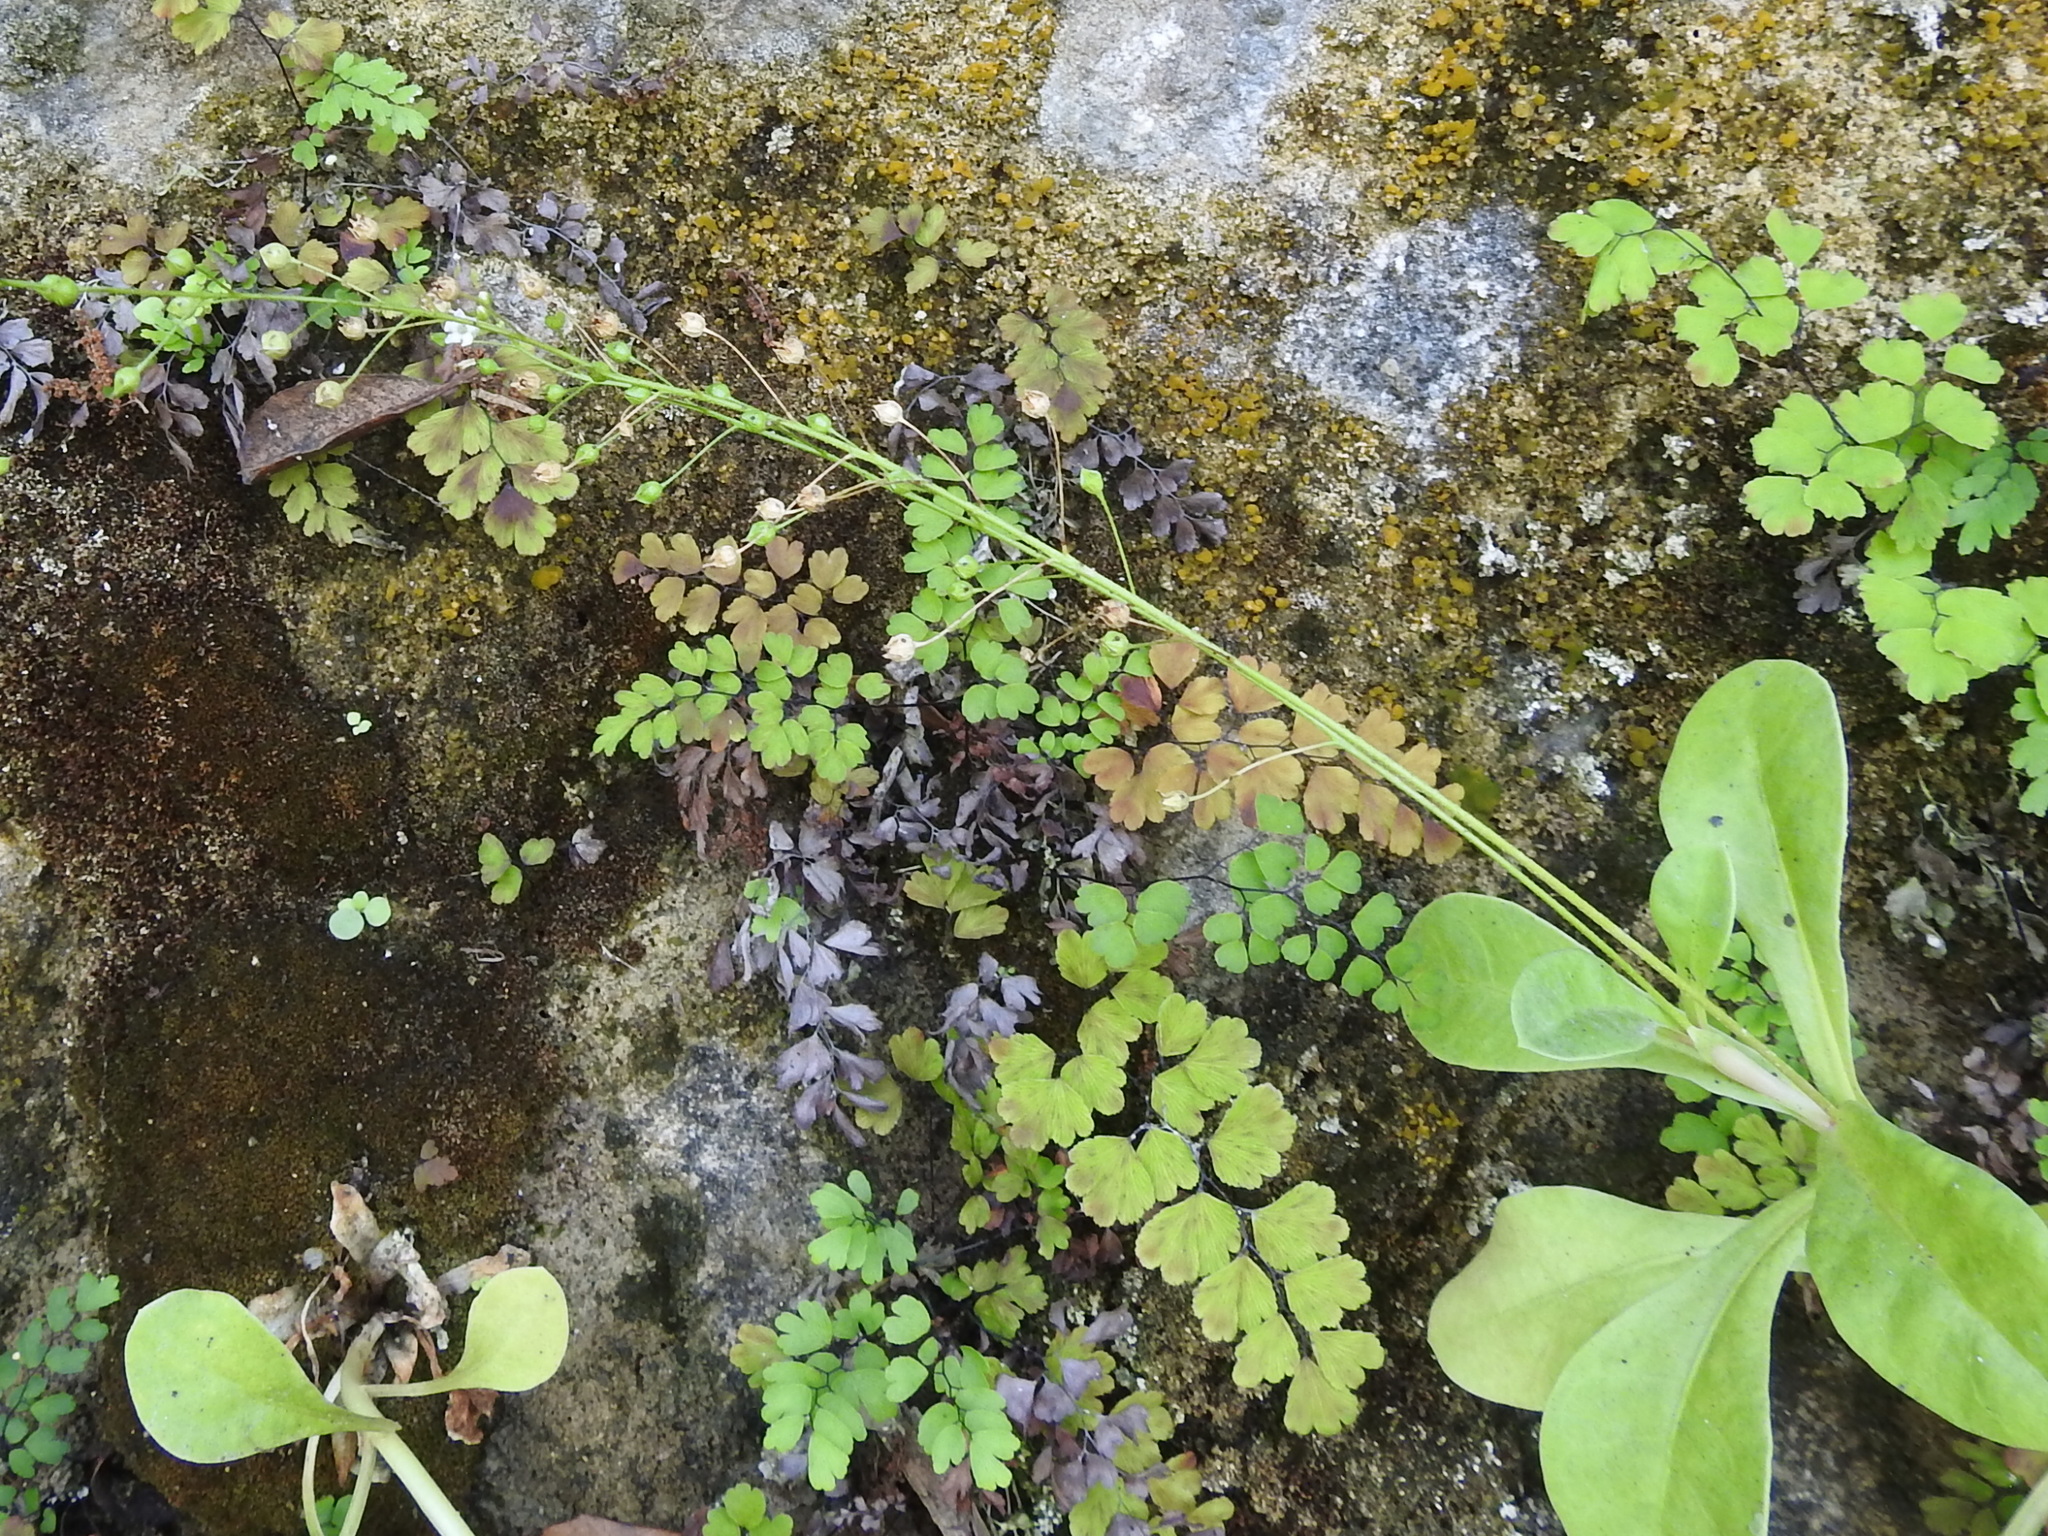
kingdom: Plantae
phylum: Tracheophyta
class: Magnoliopsida
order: Ericales
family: Primulaceae
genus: Samolus
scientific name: Samolus ebracteatus
